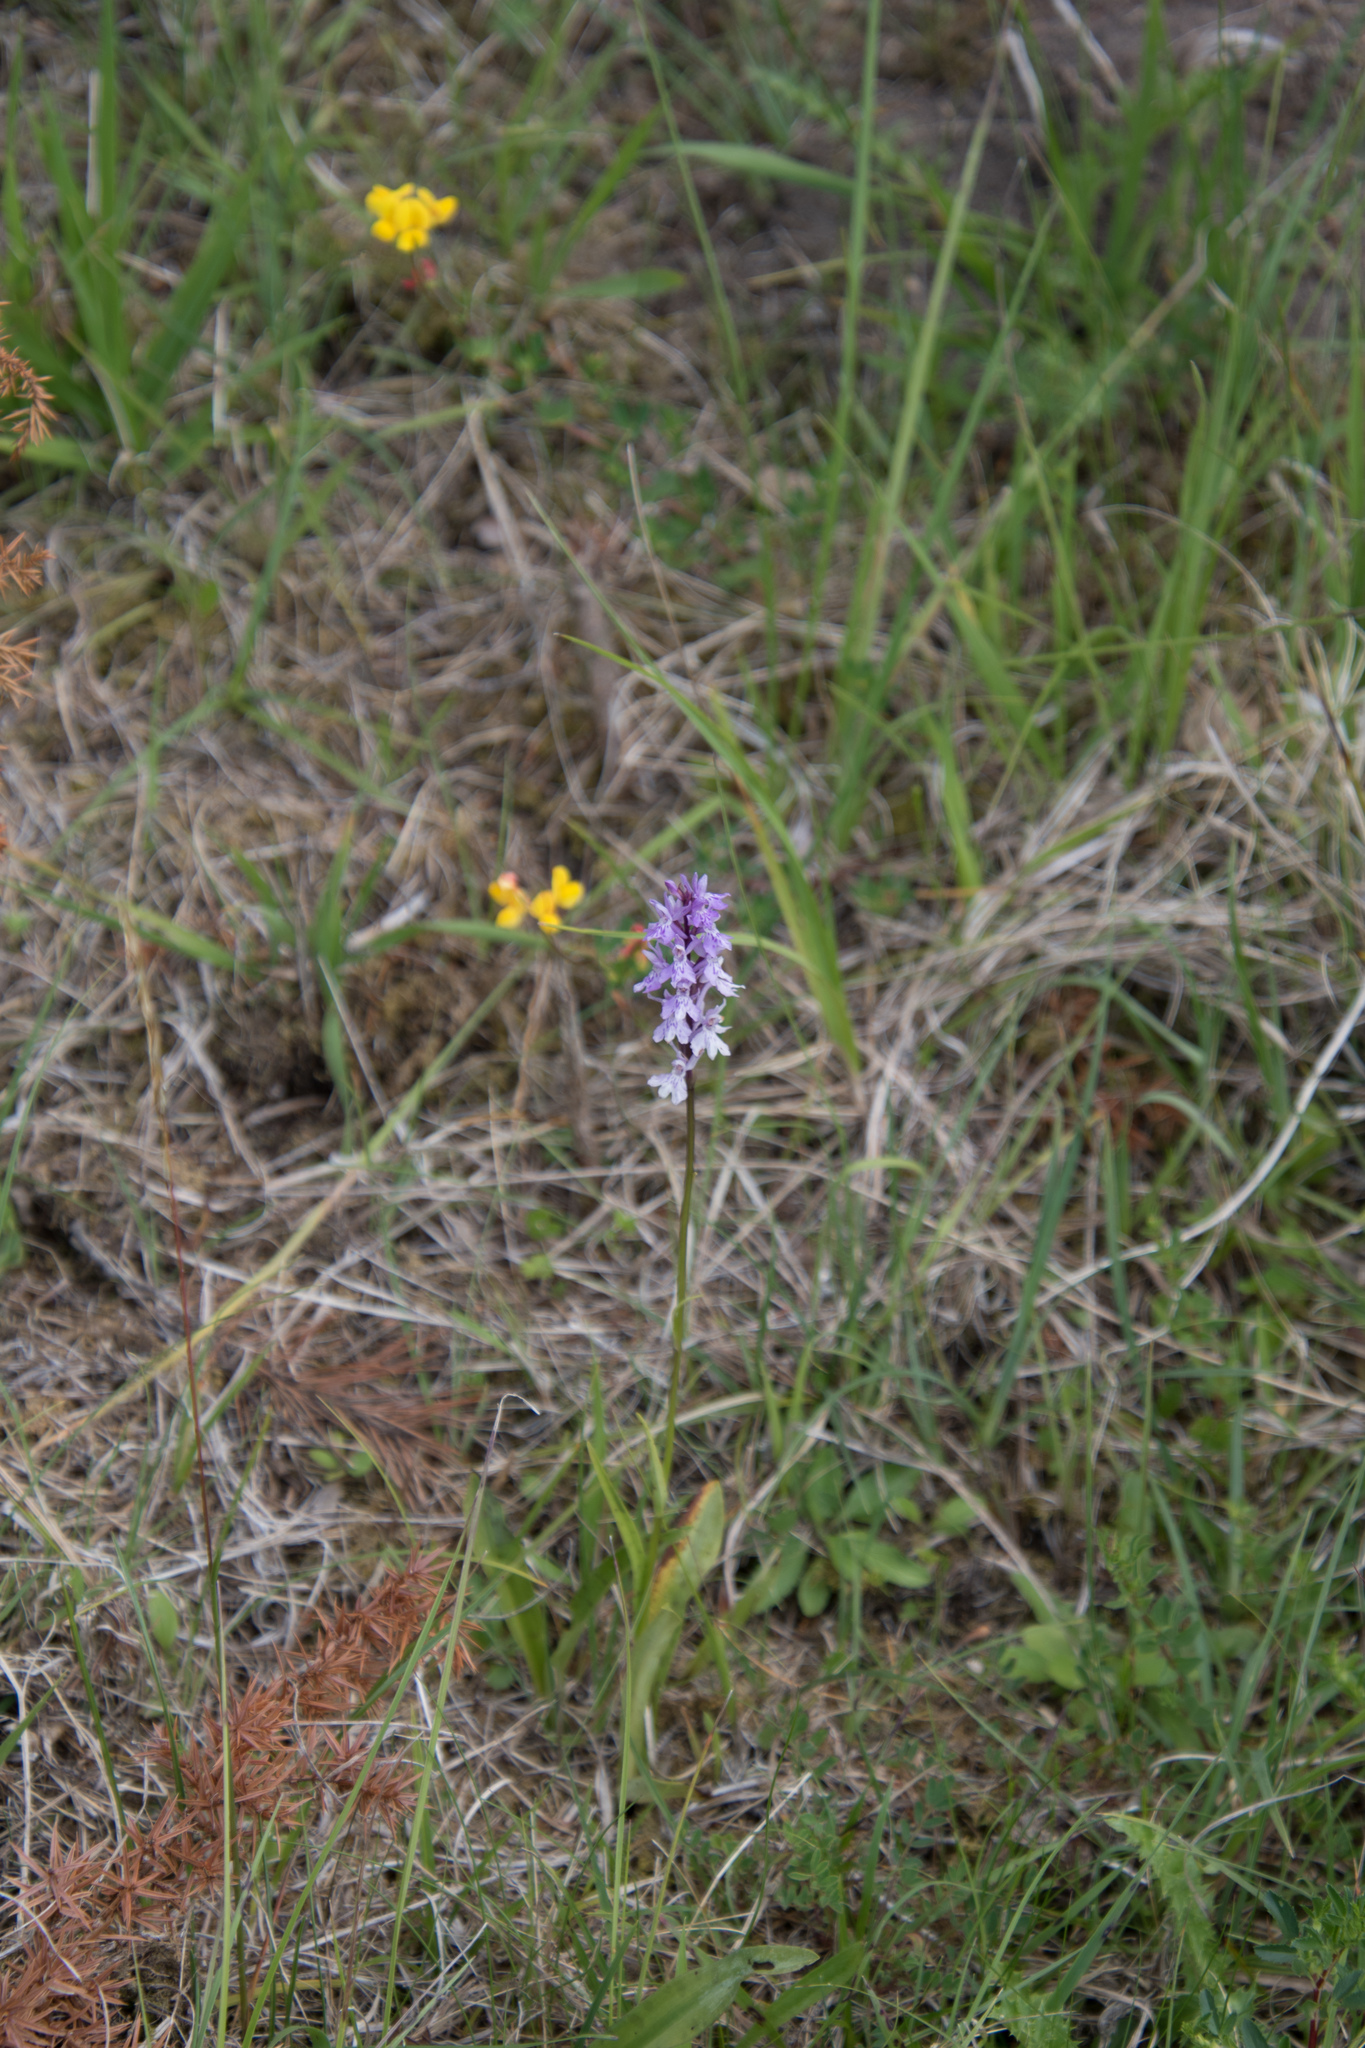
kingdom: Plantae
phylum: Tracheophyta
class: Liliopsida
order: Asparagales
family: Orchidaceae
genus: Dactylorhiza
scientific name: Dactylorhiza maculata
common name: Heath spotted-orchid
